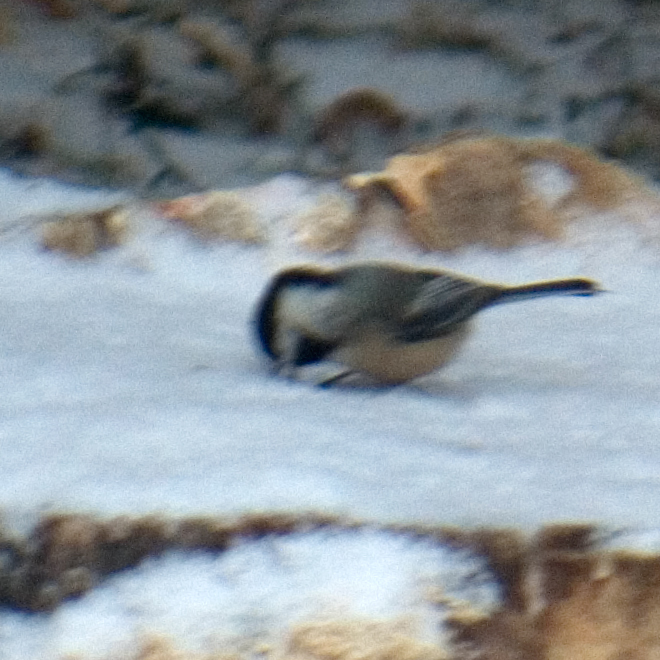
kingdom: Animalia
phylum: Chordata
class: Aves
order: Passeriformes
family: Paridae
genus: Poecile
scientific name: Poecile atricapillus
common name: Black-capped chickadee
